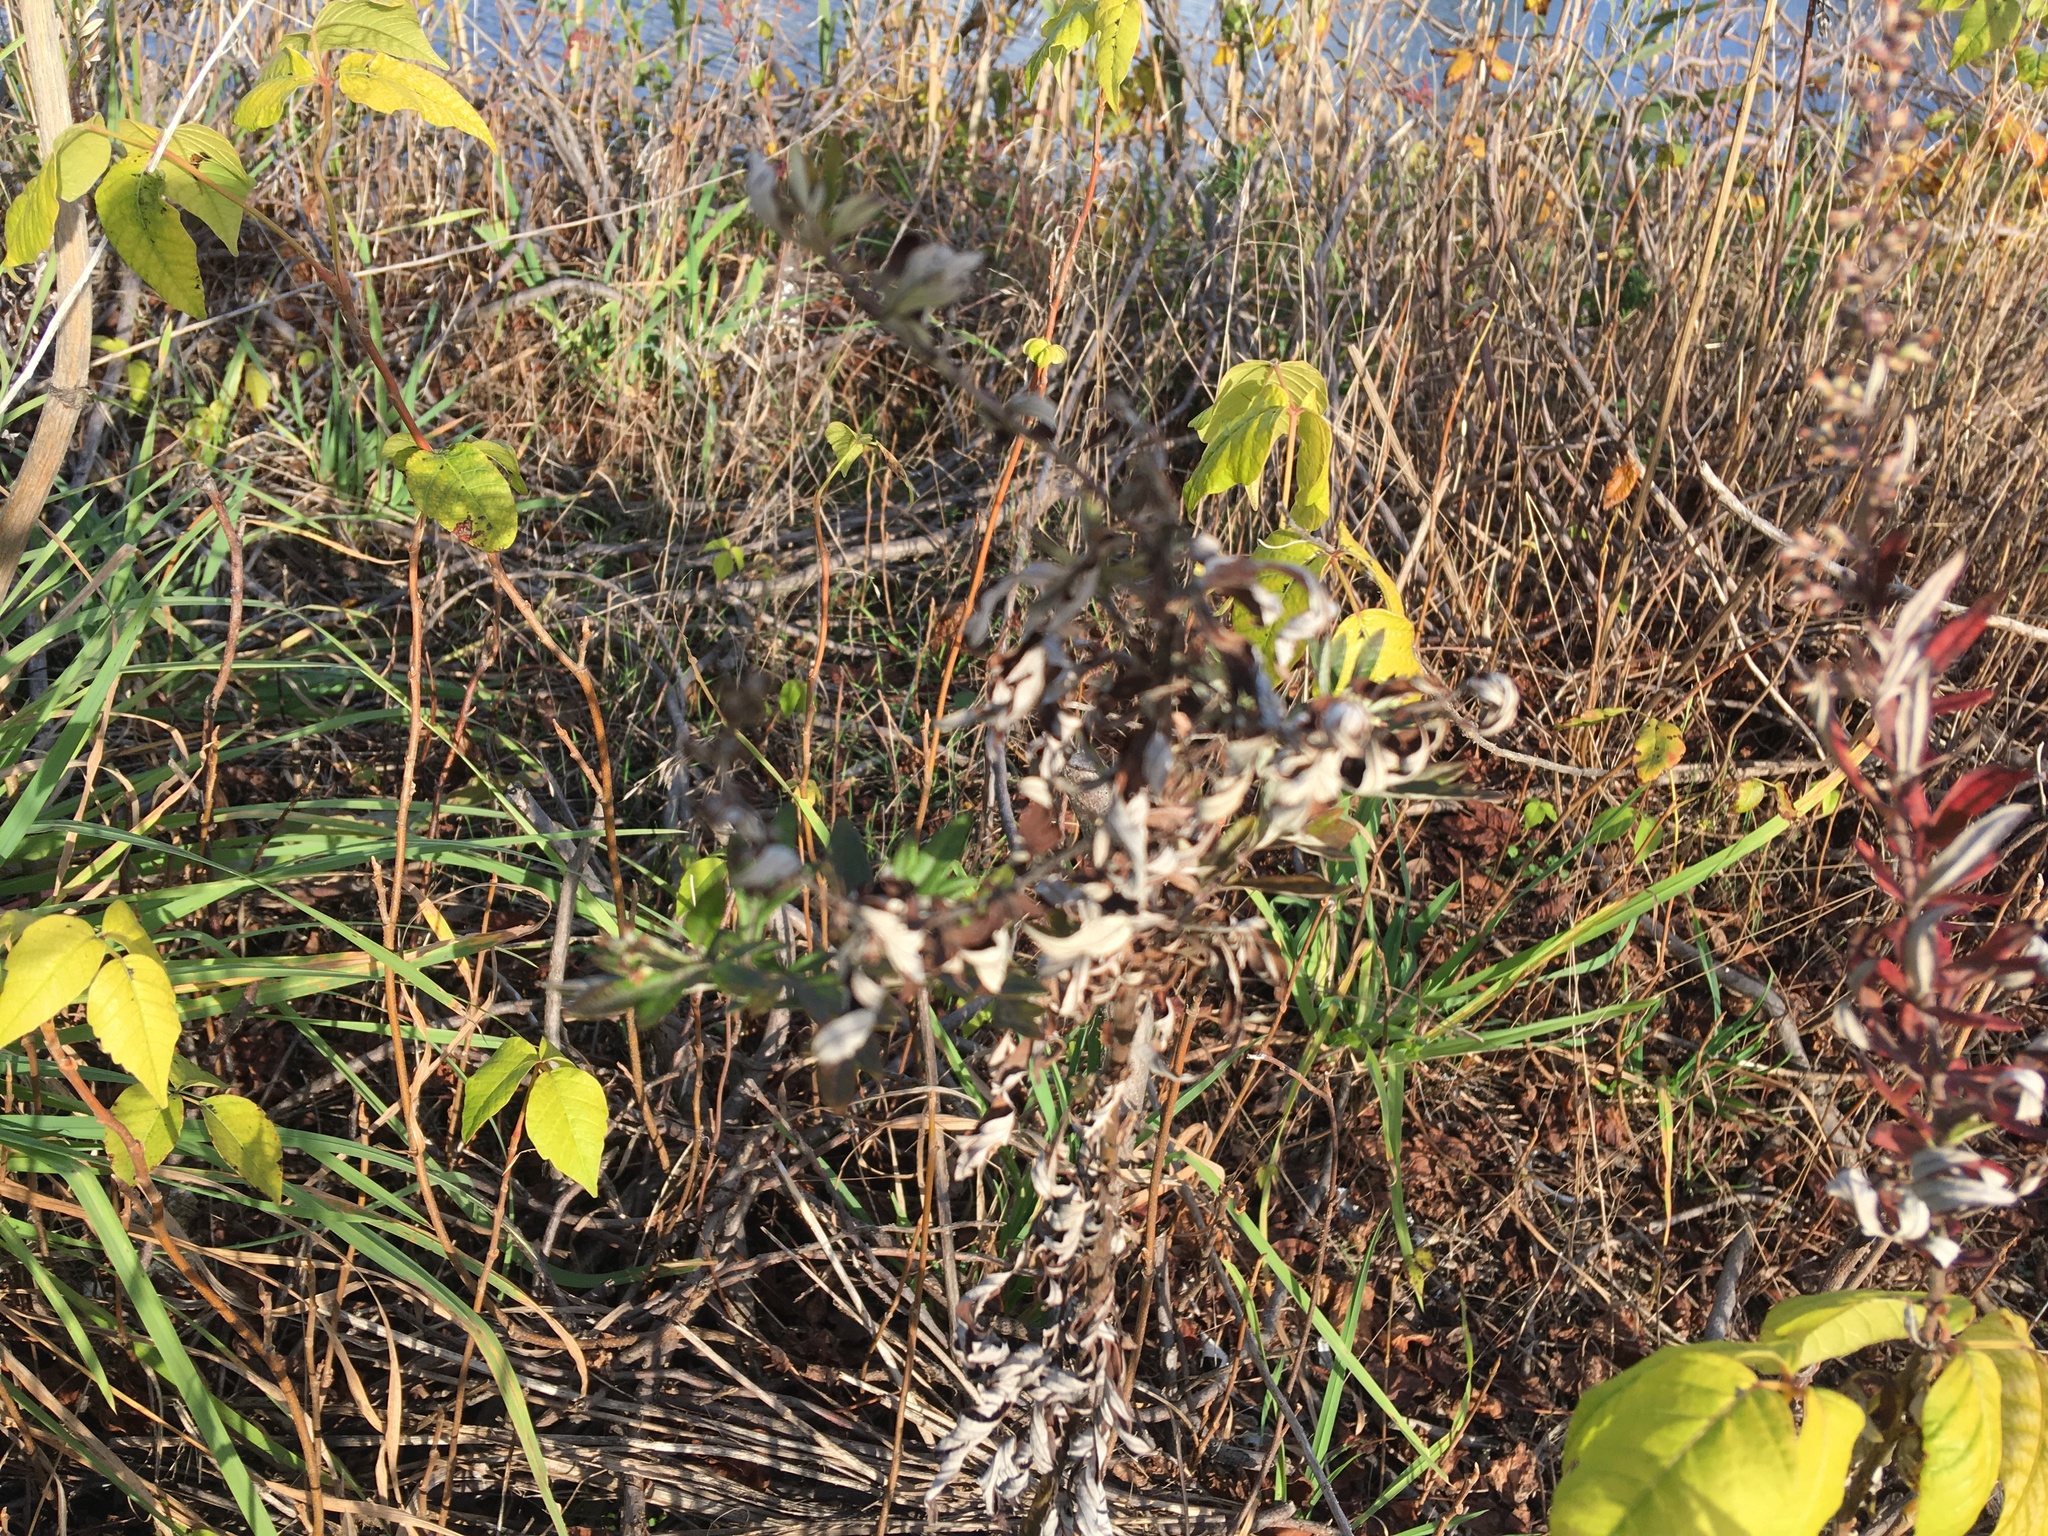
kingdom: Plantae
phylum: Tracheophyta
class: Magnoliopsida
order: Asterales
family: Asteraceae
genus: Artemisia
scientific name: Artemisia vulgaris
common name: Mugwort
